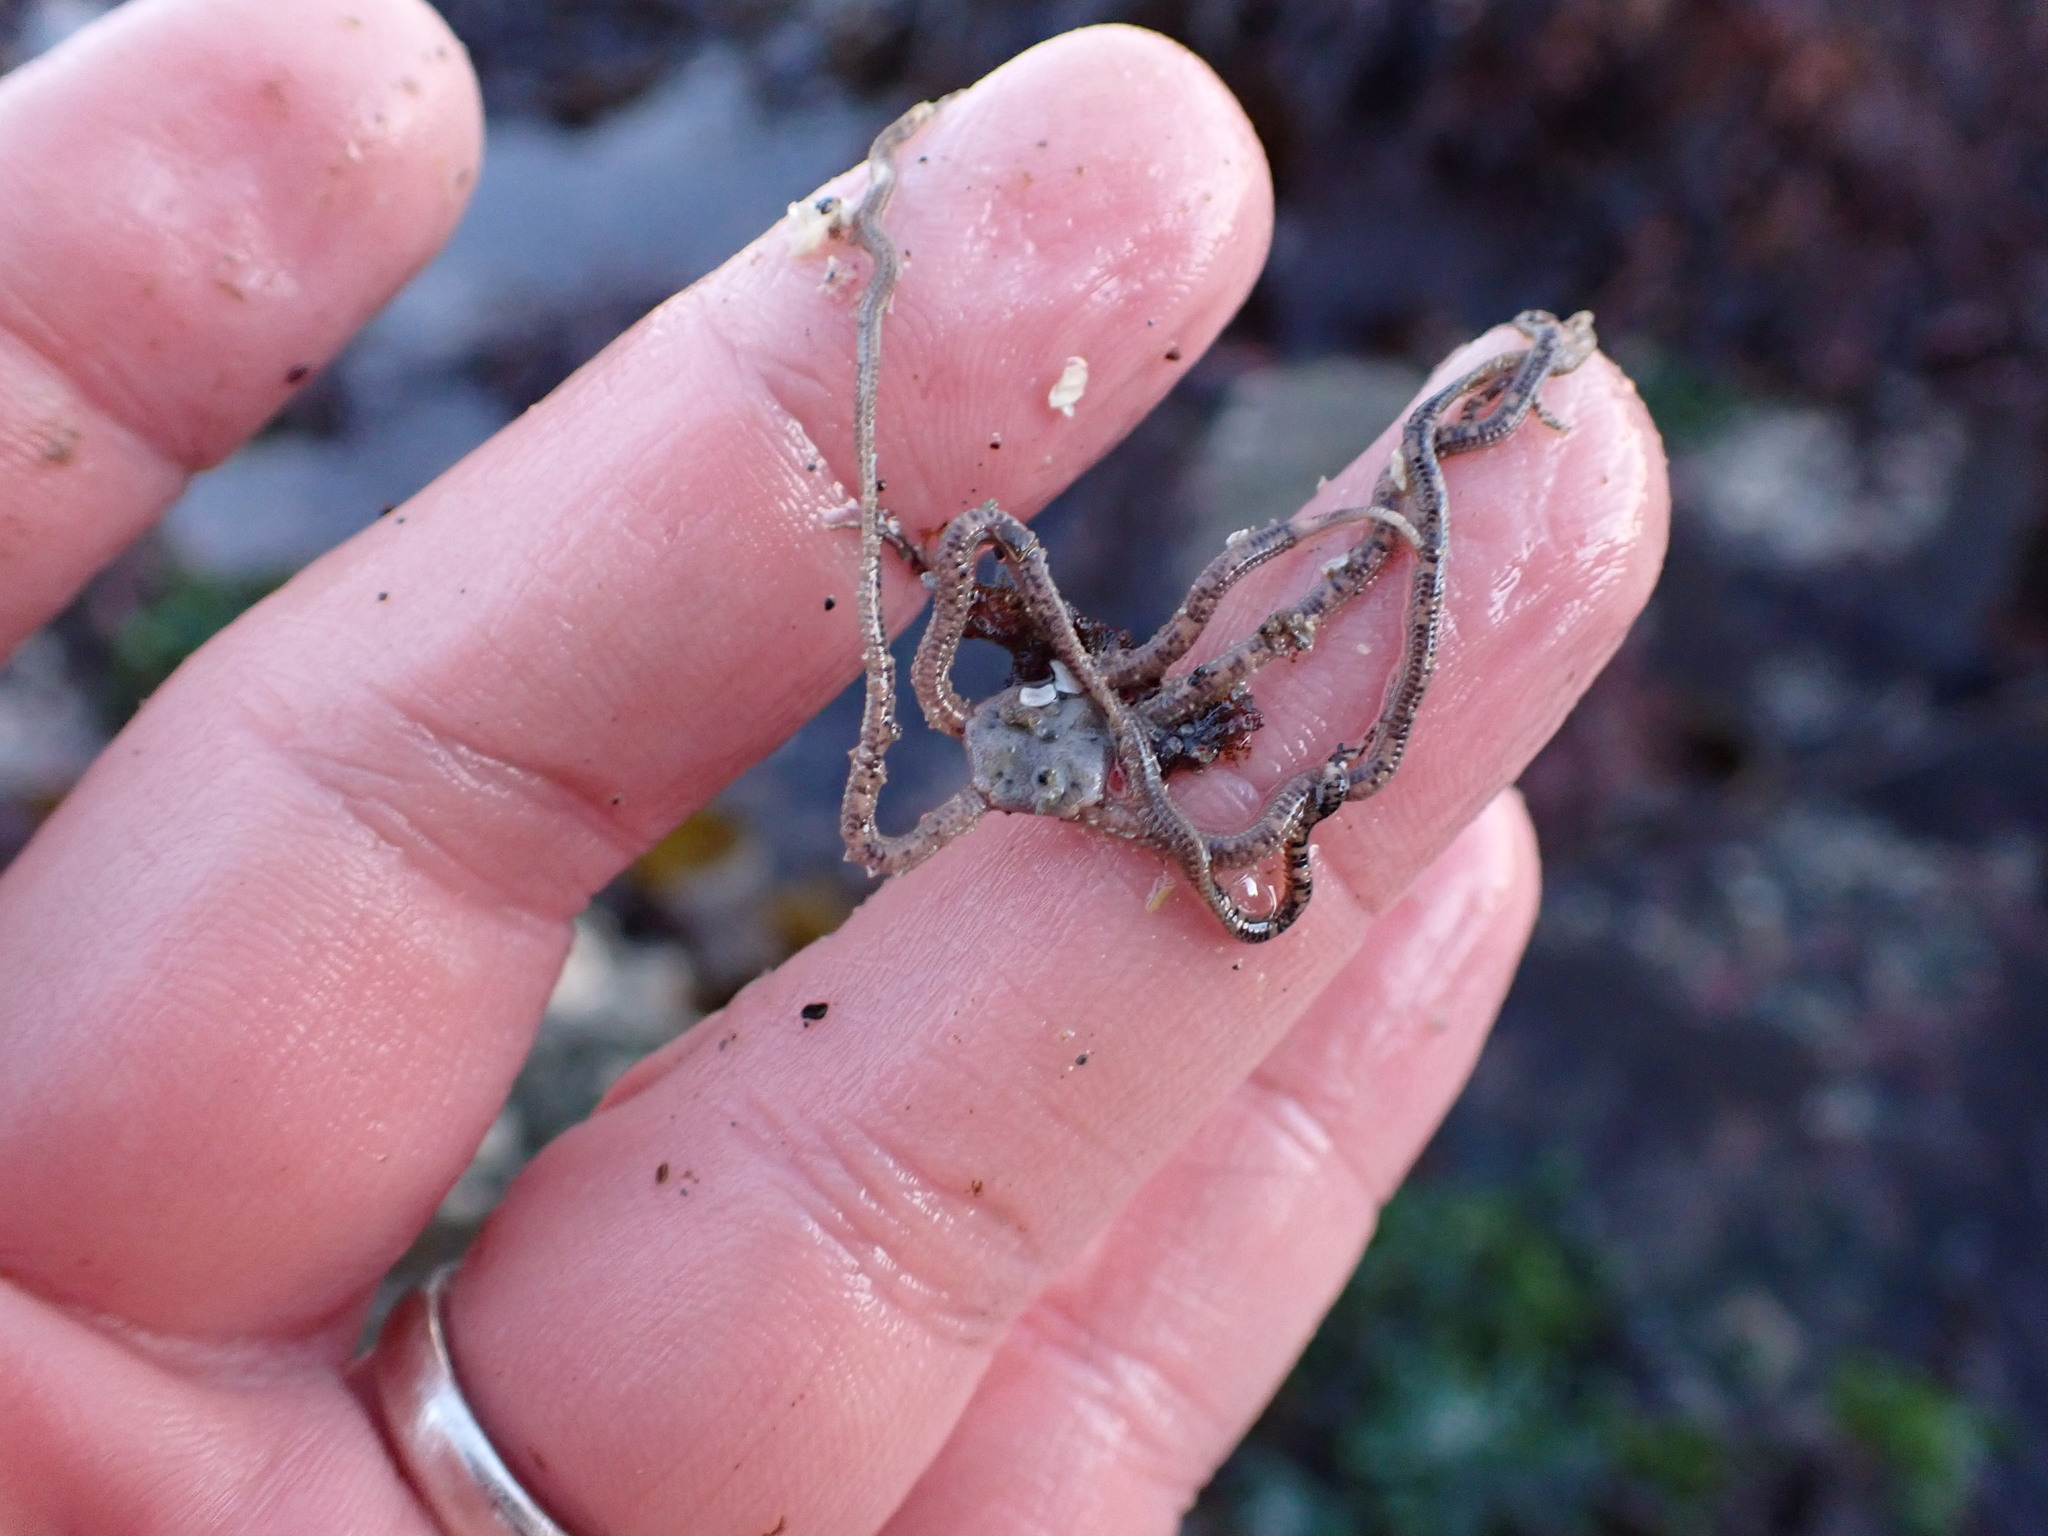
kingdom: Animalia
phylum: Echinodermata
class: Ophiuroidea
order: Amphilepidida
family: Amphiuridae
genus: Amphiodia
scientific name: Amphiodia occidentalis
